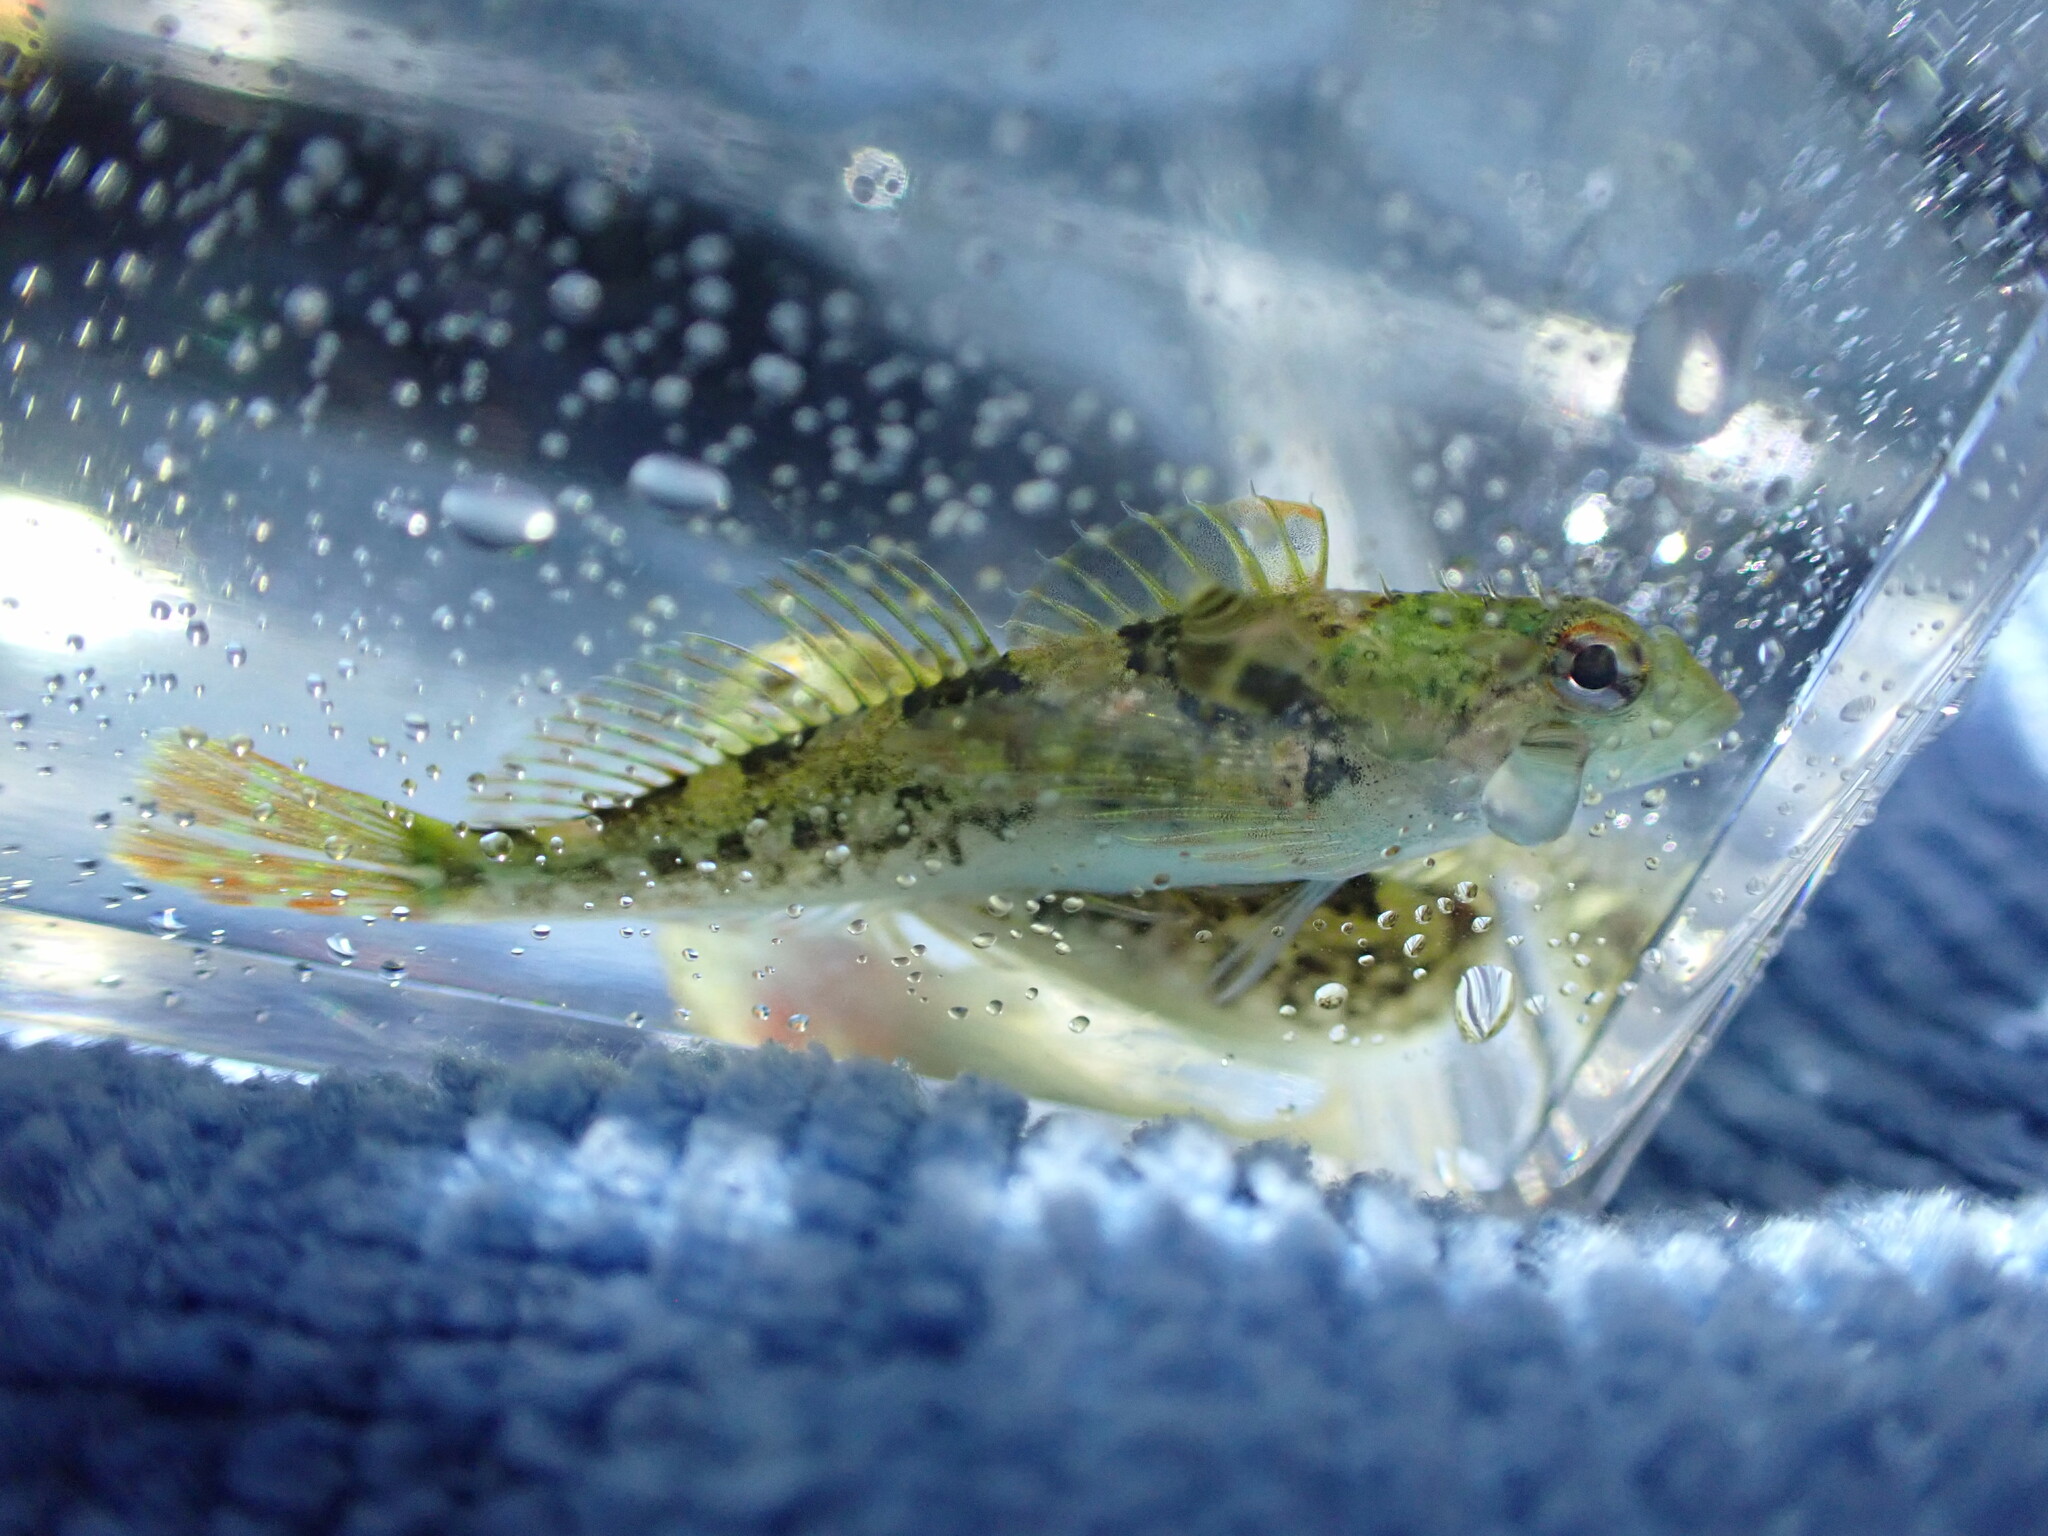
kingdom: Animalia
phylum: Chordata
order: Scorpaeniformes
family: Cottidae
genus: Oligocottus
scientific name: Oligocottus maculosus
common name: Tidepool sculpin
